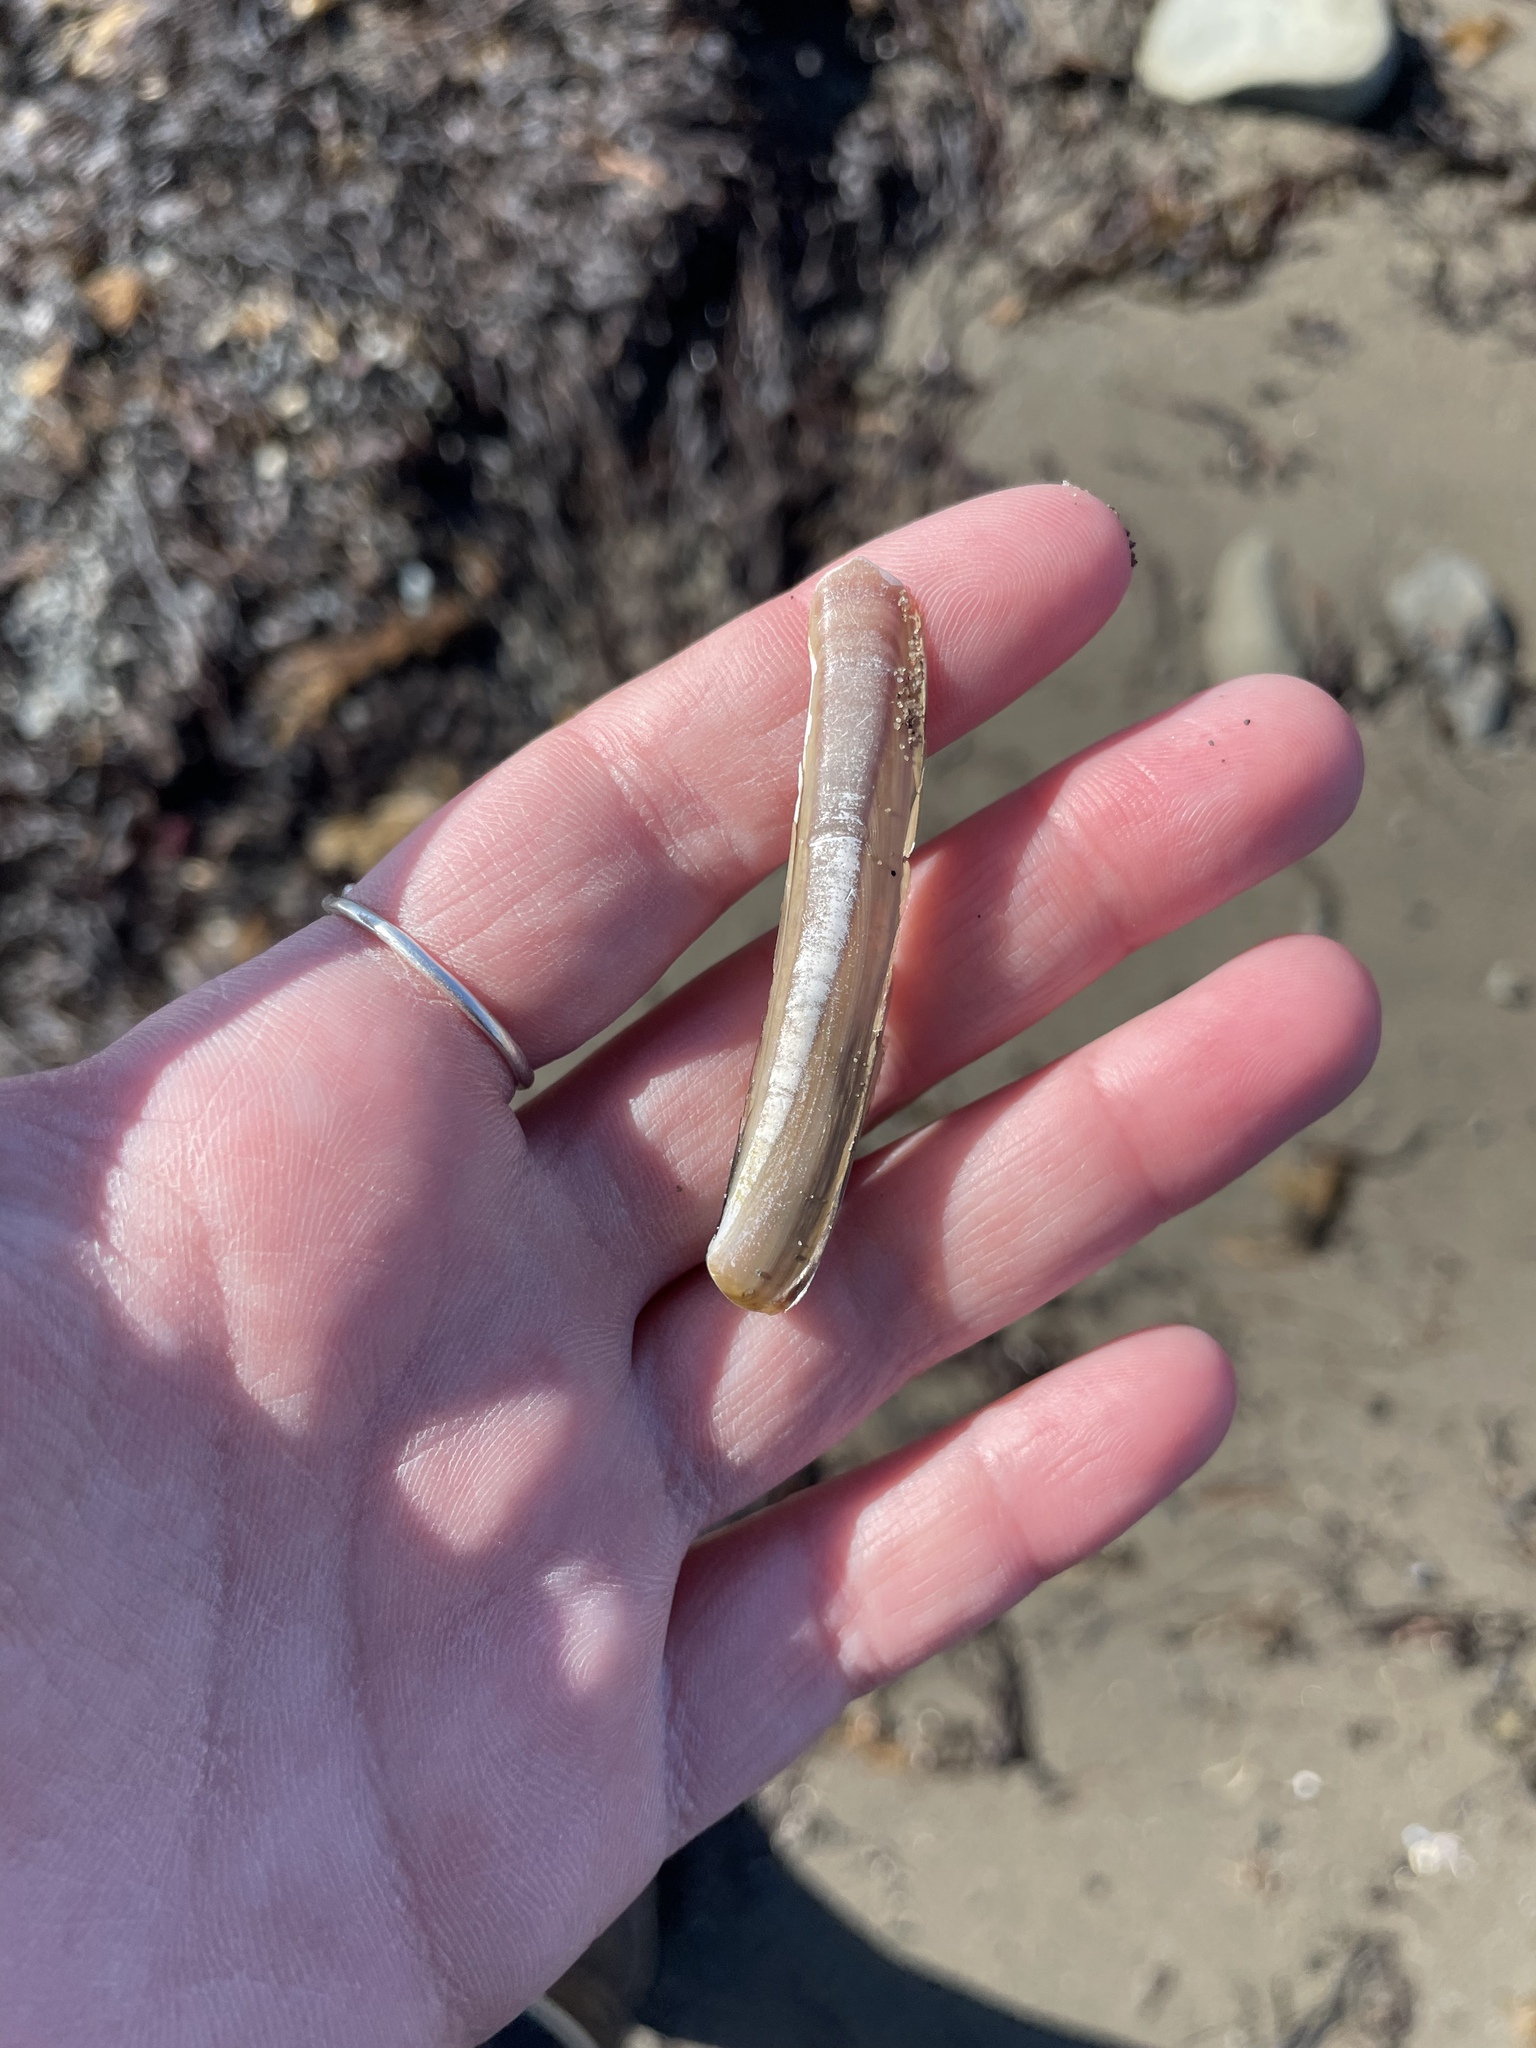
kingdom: Animalia
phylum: Mollusca
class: Bivalvia
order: Adapedonta
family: Pharidae
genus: Ensis
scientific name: Ensis leei
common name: American jack knife clam
